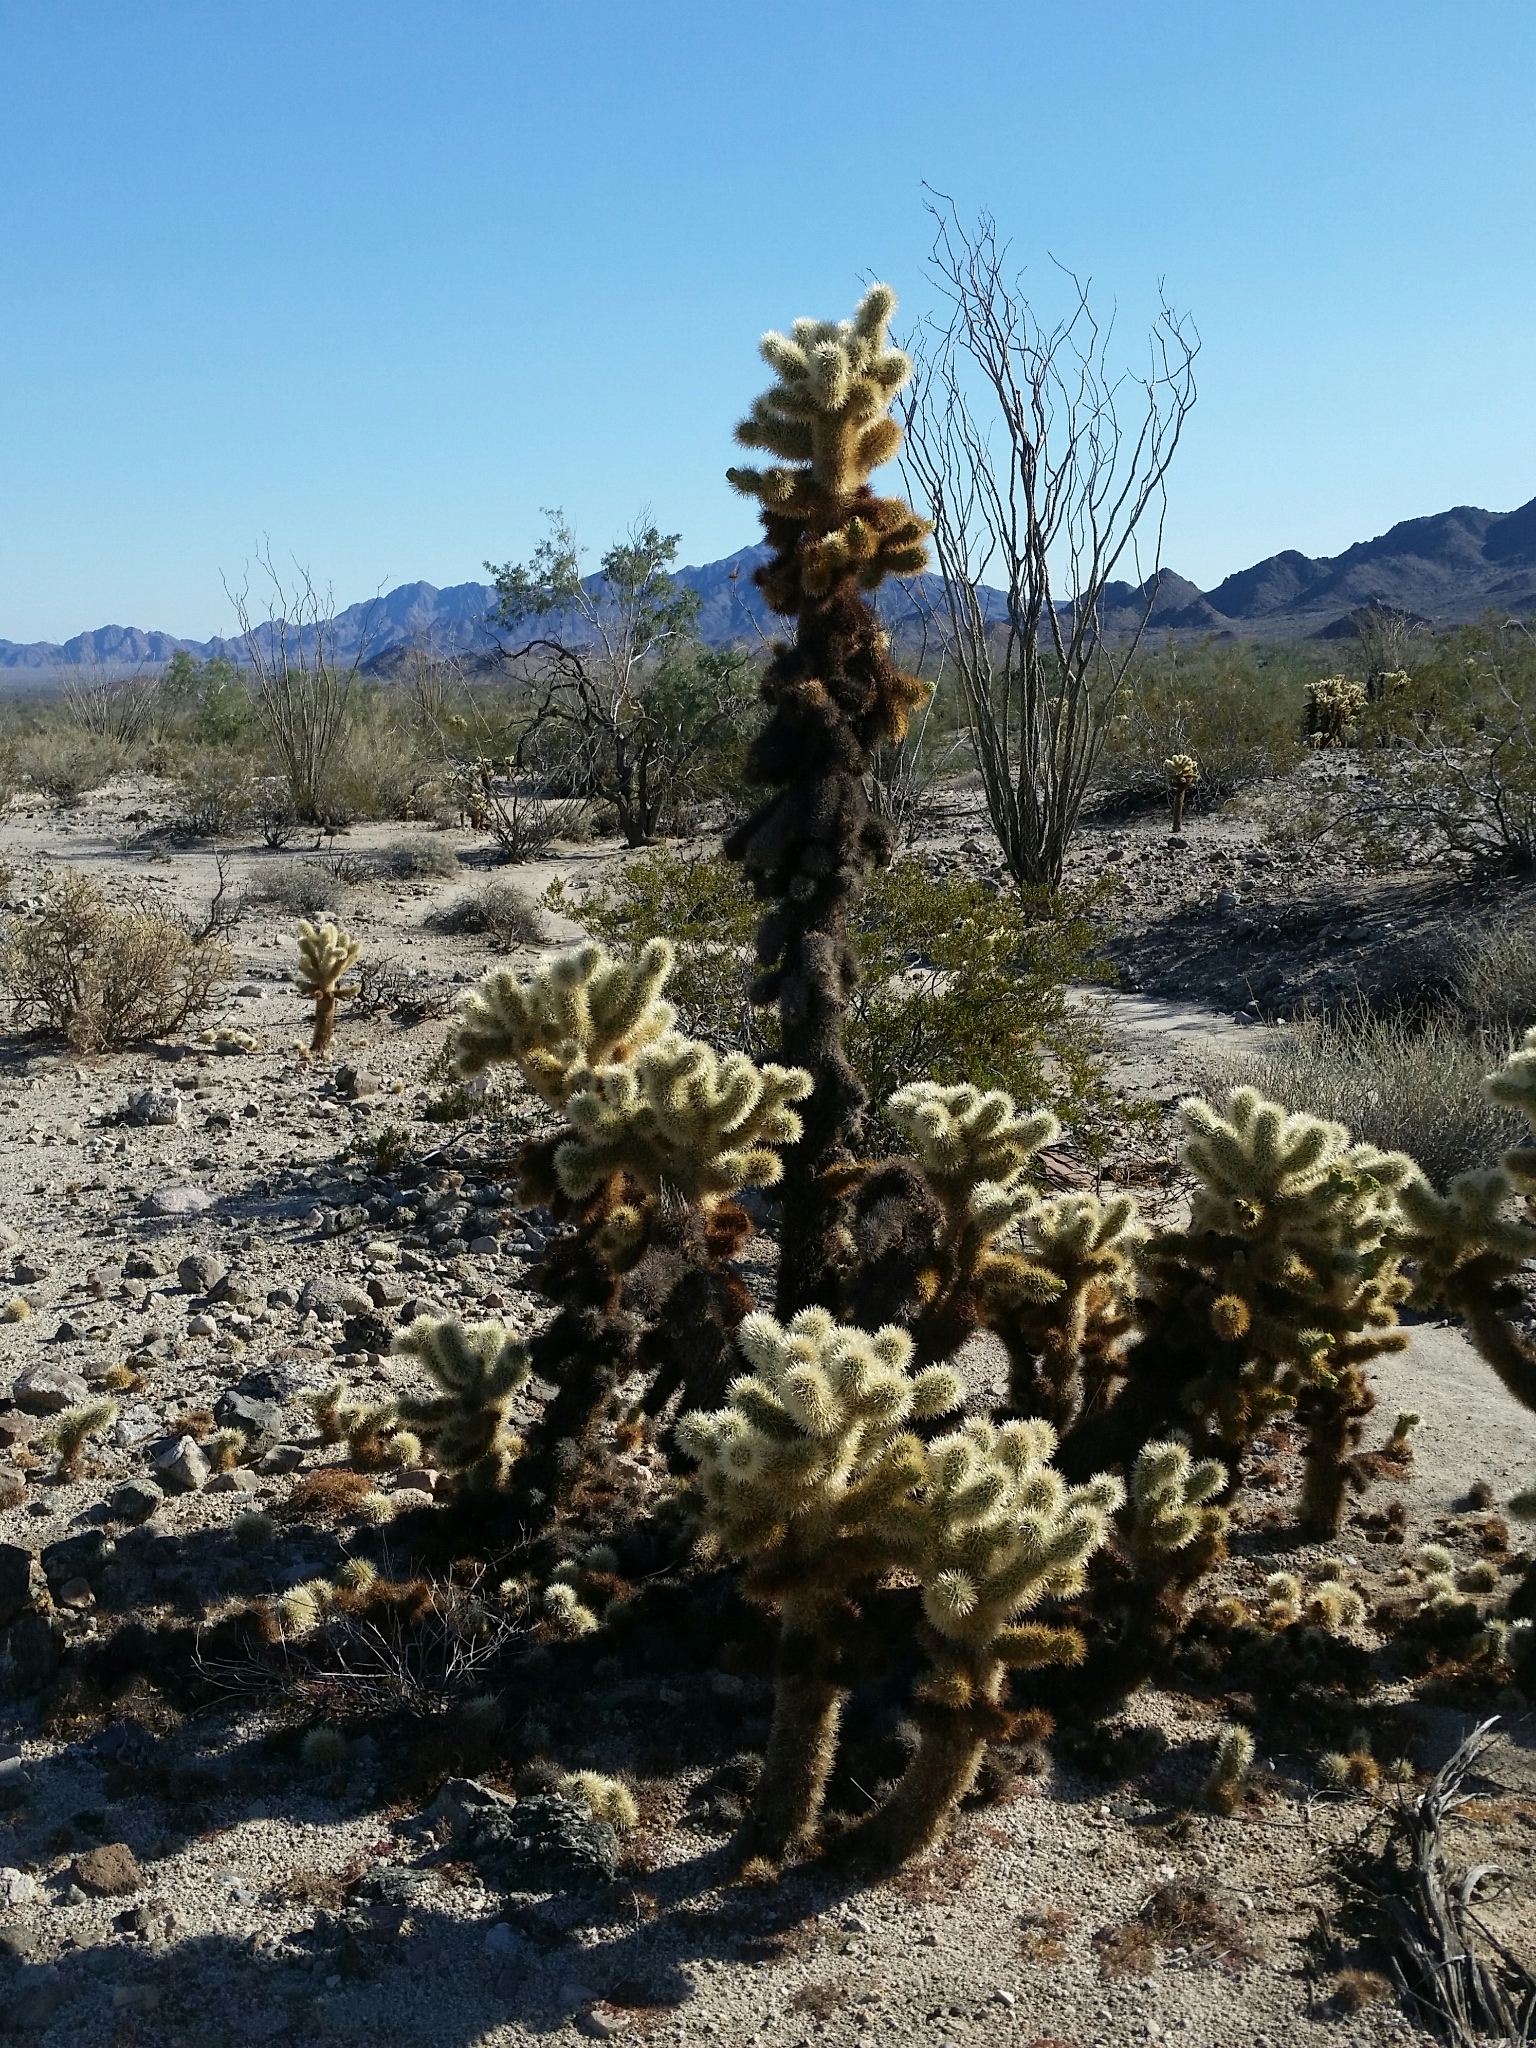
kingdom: Plantae
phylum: Tracheophyta
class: Magnoliopsida
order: Caryophyllales
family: Cactaceae
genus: Cylindropuntia
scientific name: Cylindropuntia fosbergii
